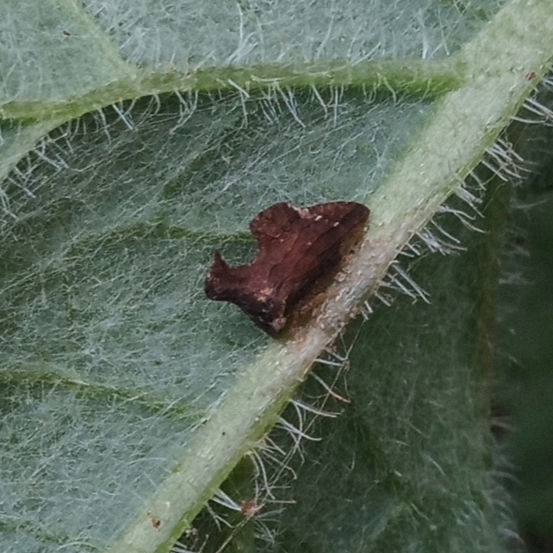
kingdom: Animalia
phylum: Arthropoda
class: Insecta
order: Hemiptera
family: Membracidae
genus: Entylia
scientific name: Entylia carinata
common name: Keeled treehopper
